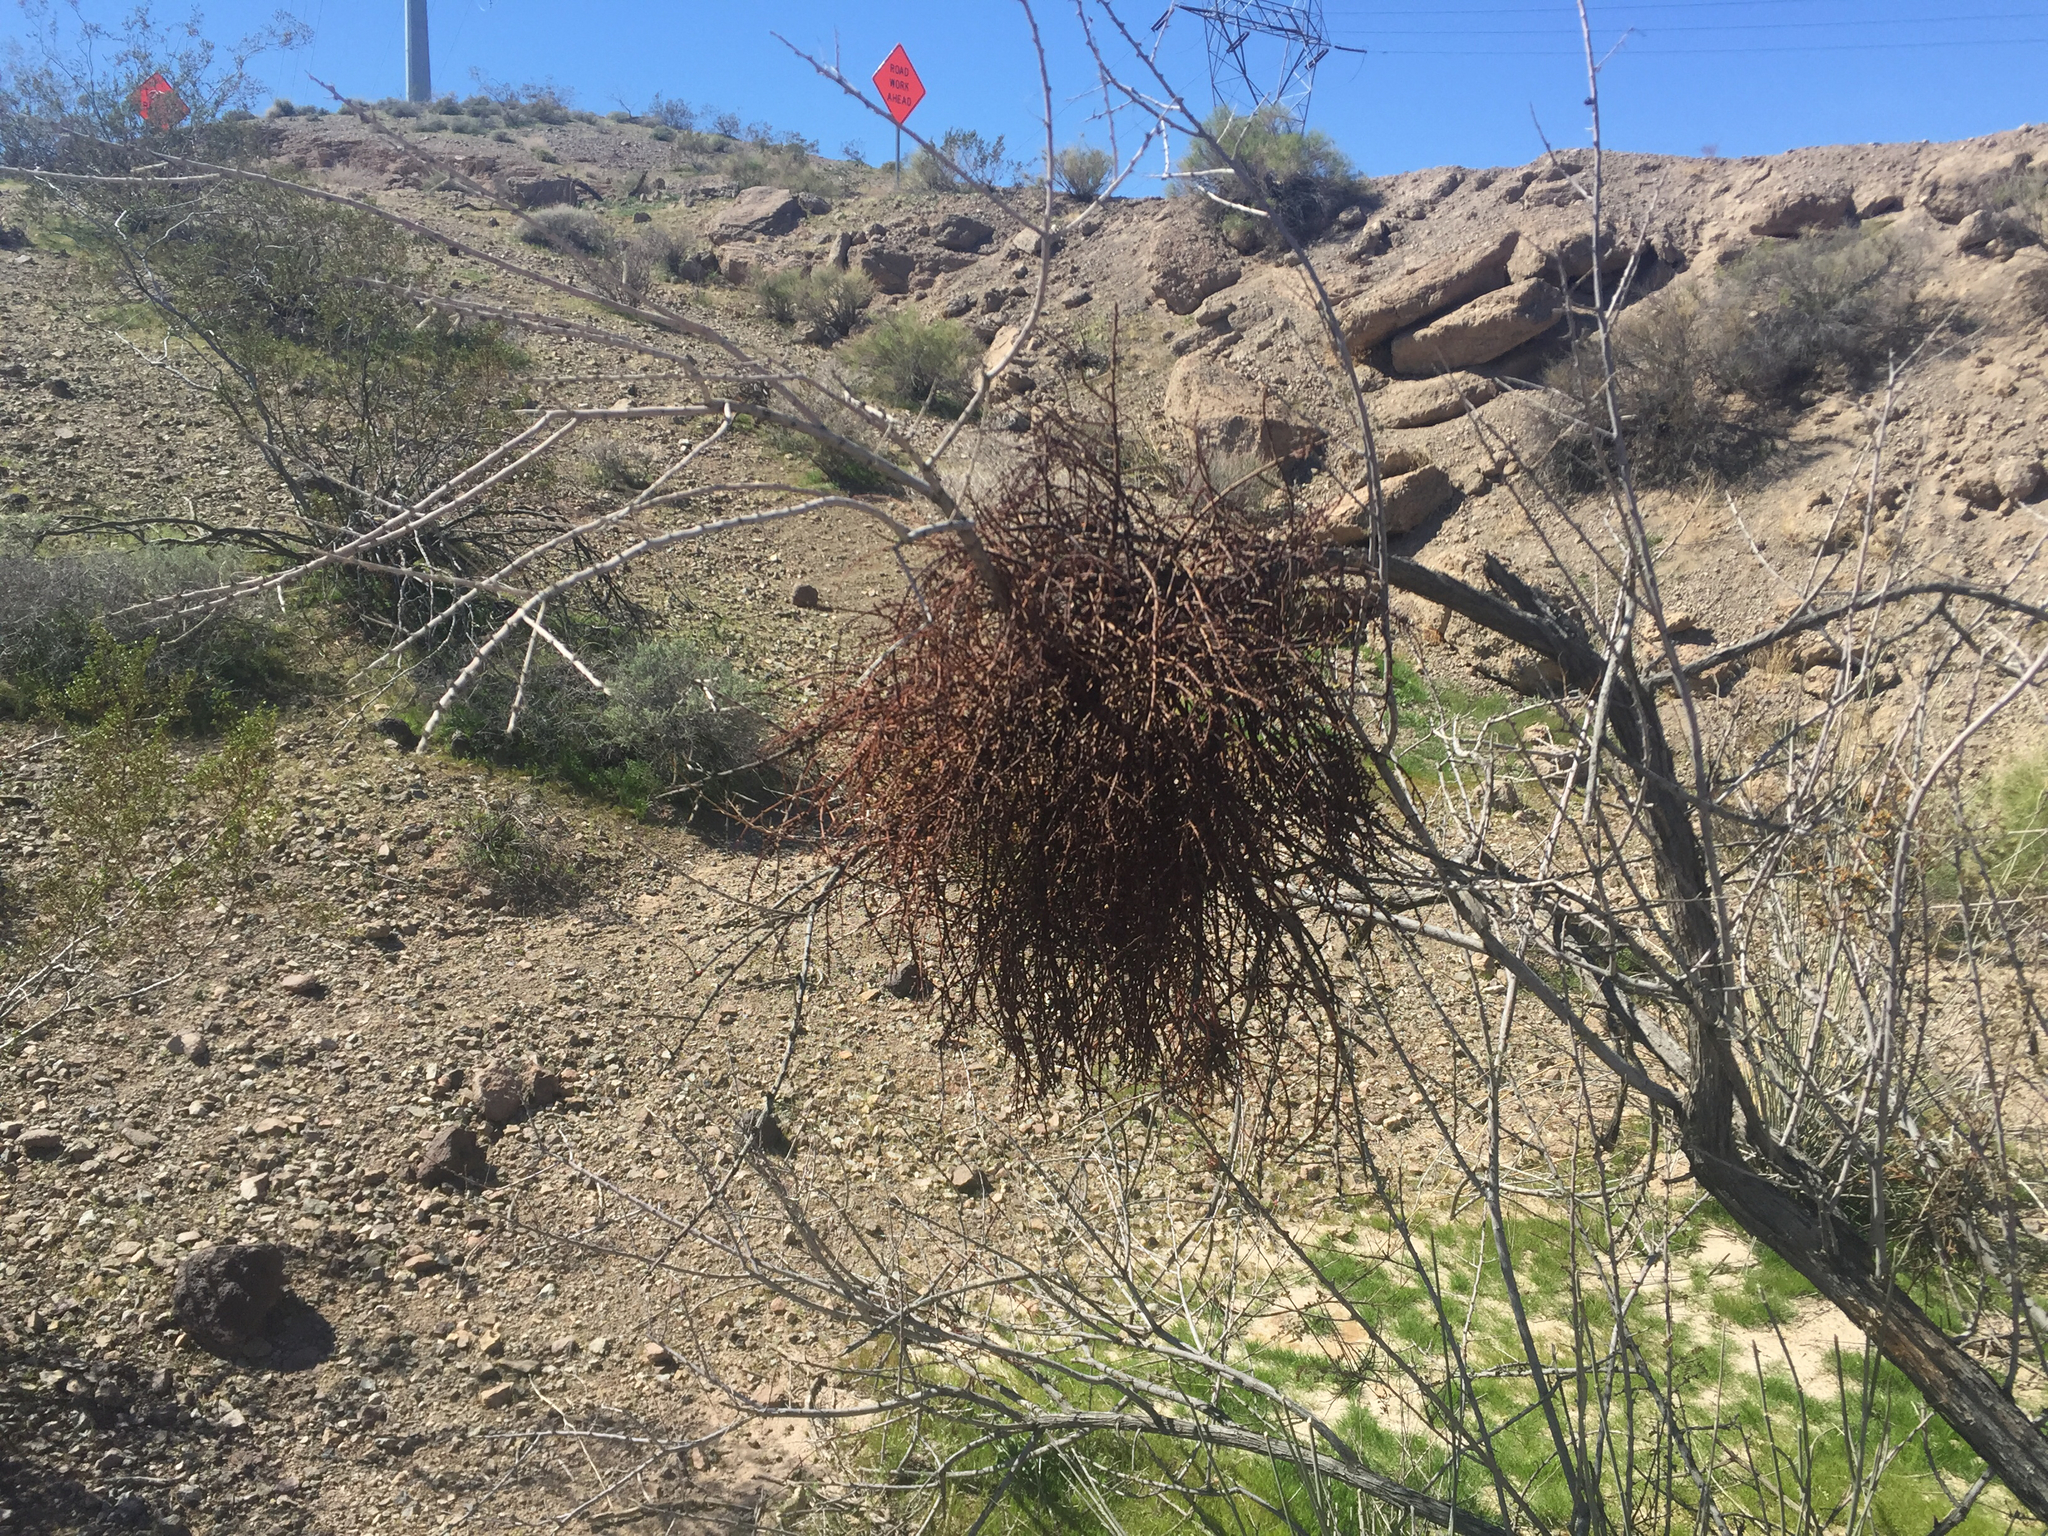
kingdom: Plantae
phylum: Tracheophyta
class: Magnoliopsida
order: Santalales
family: Viscaceae
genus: Phoradendron
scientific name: Phoradendron californicum
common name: Acacia mistletoe
